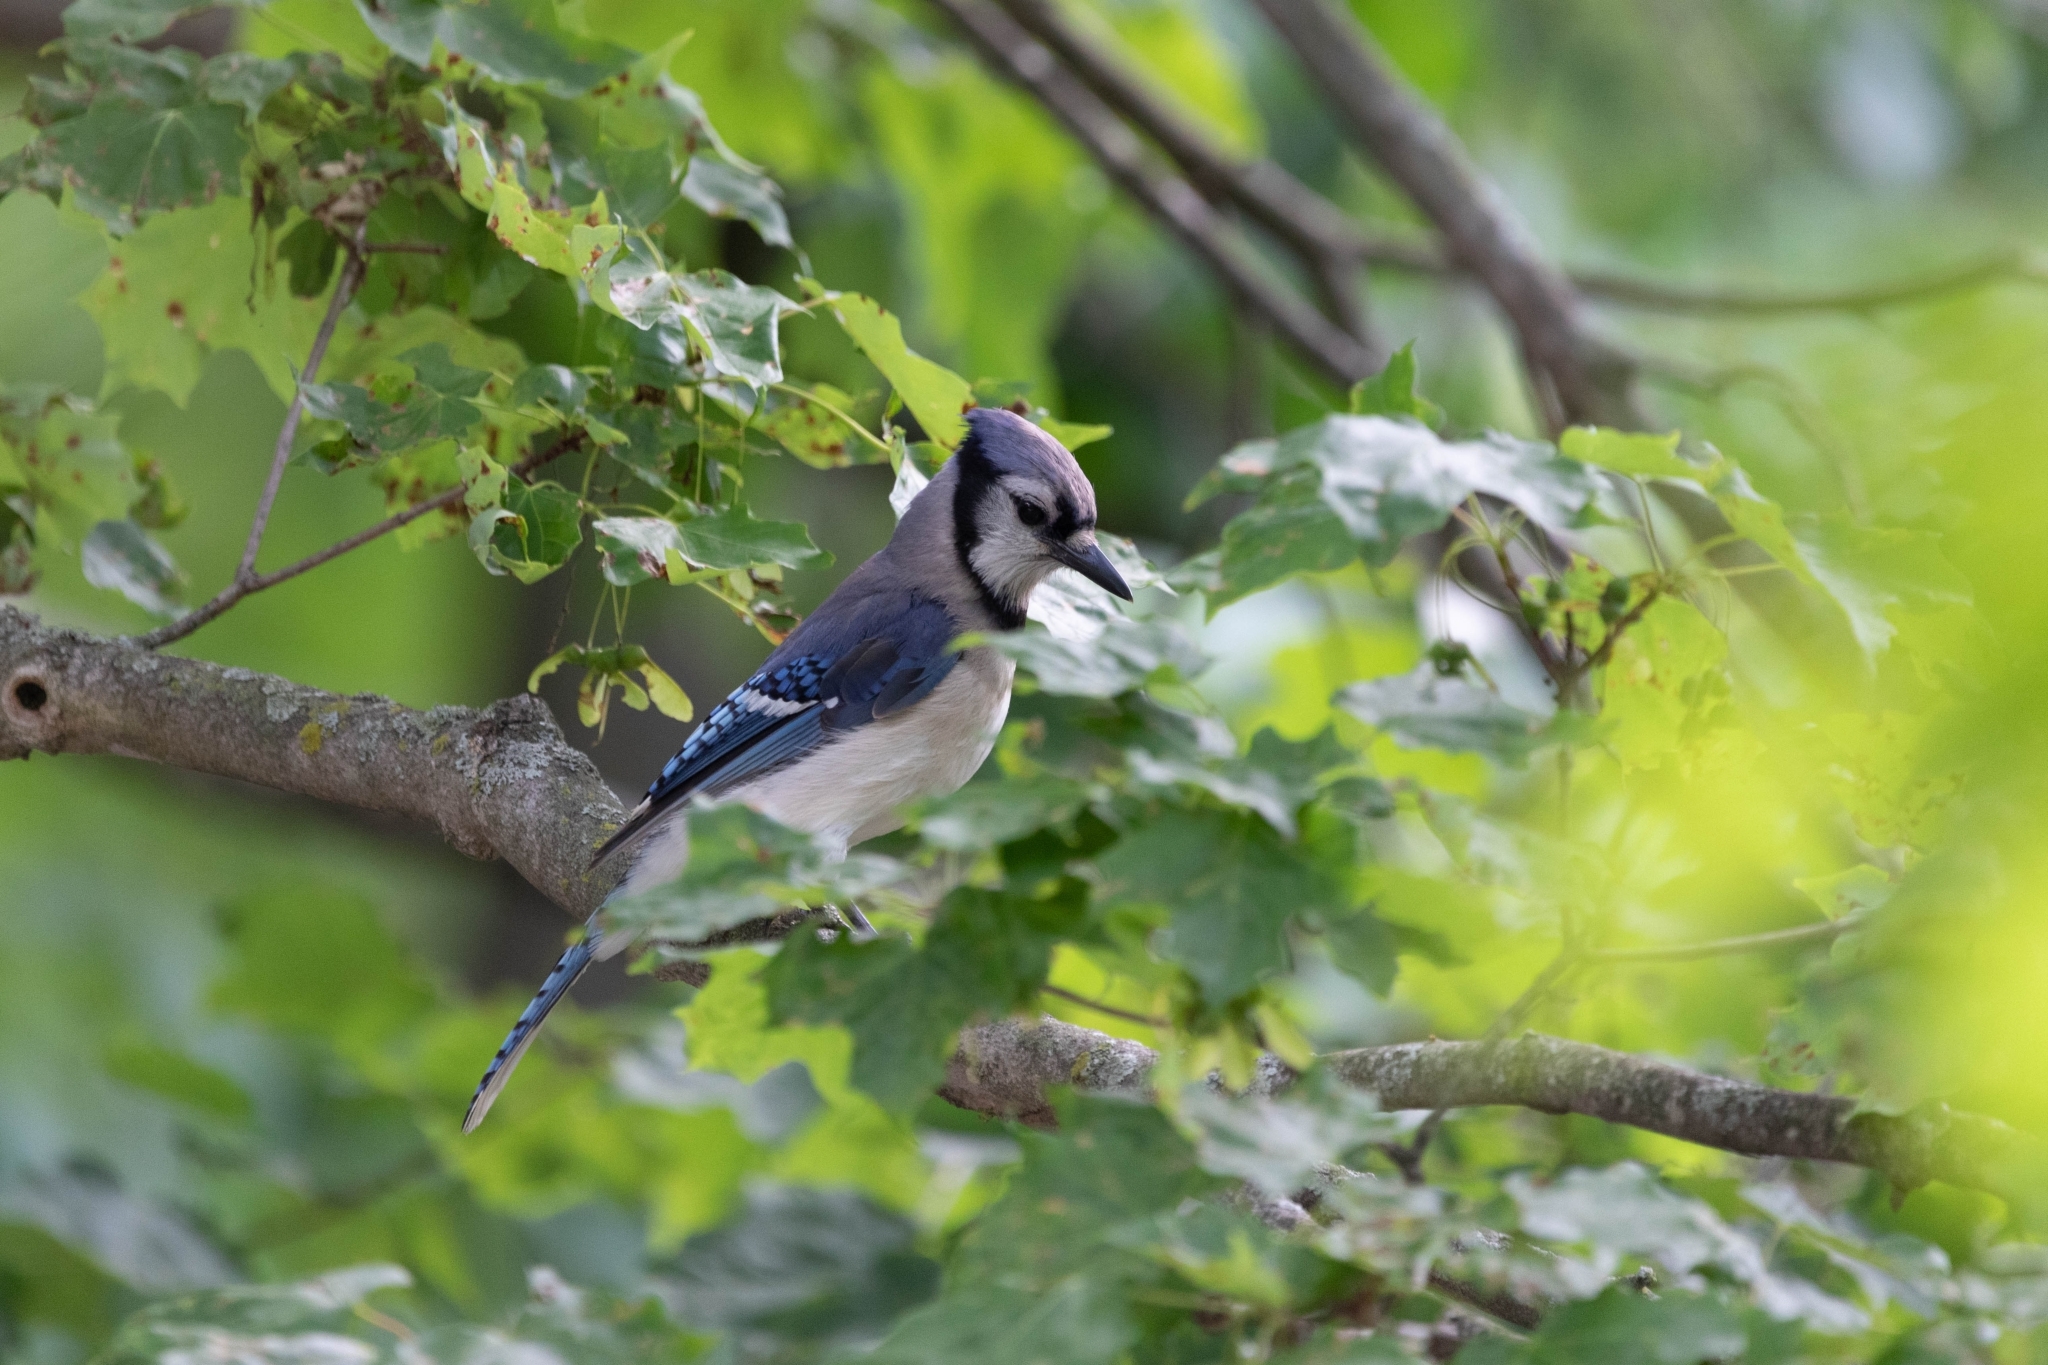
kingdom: Animalia
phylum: Chordata
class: Aves
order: Passeriformes
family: Corvidae
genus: Cyanocitta
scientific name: Cyanocitta cristata
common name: Blue jay
